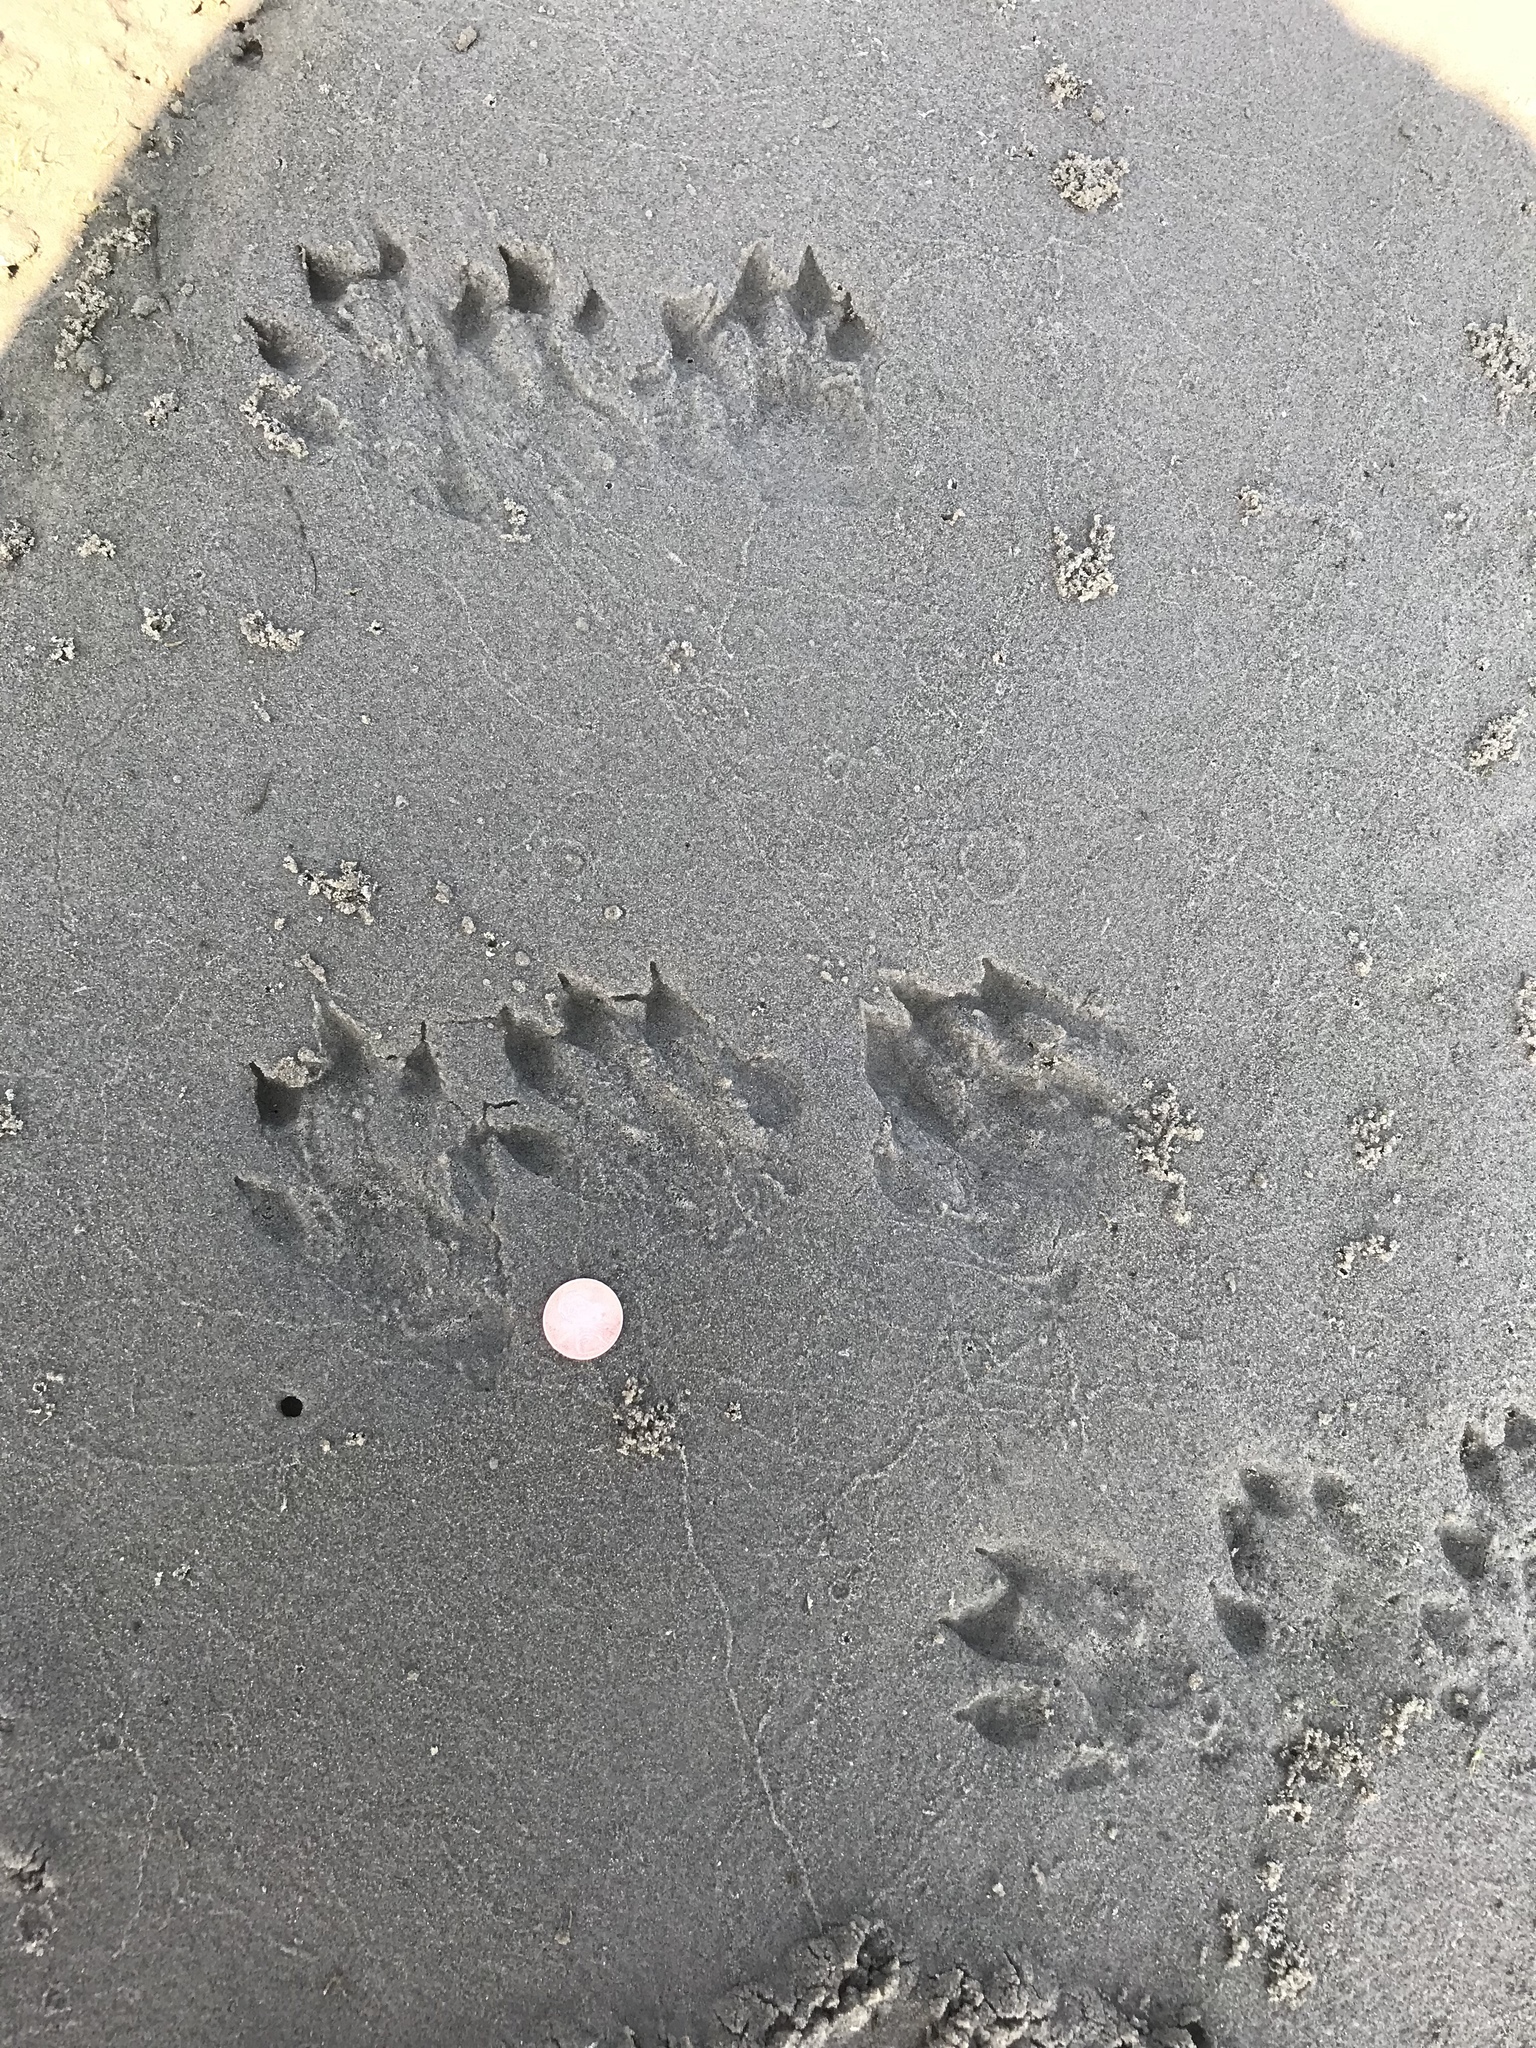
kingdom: Animalia
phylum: Chordata
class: Mammalia
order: Carnivora
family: Mustelidae
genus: Lontra
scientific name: Lontra canadensis
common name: North american river otter
